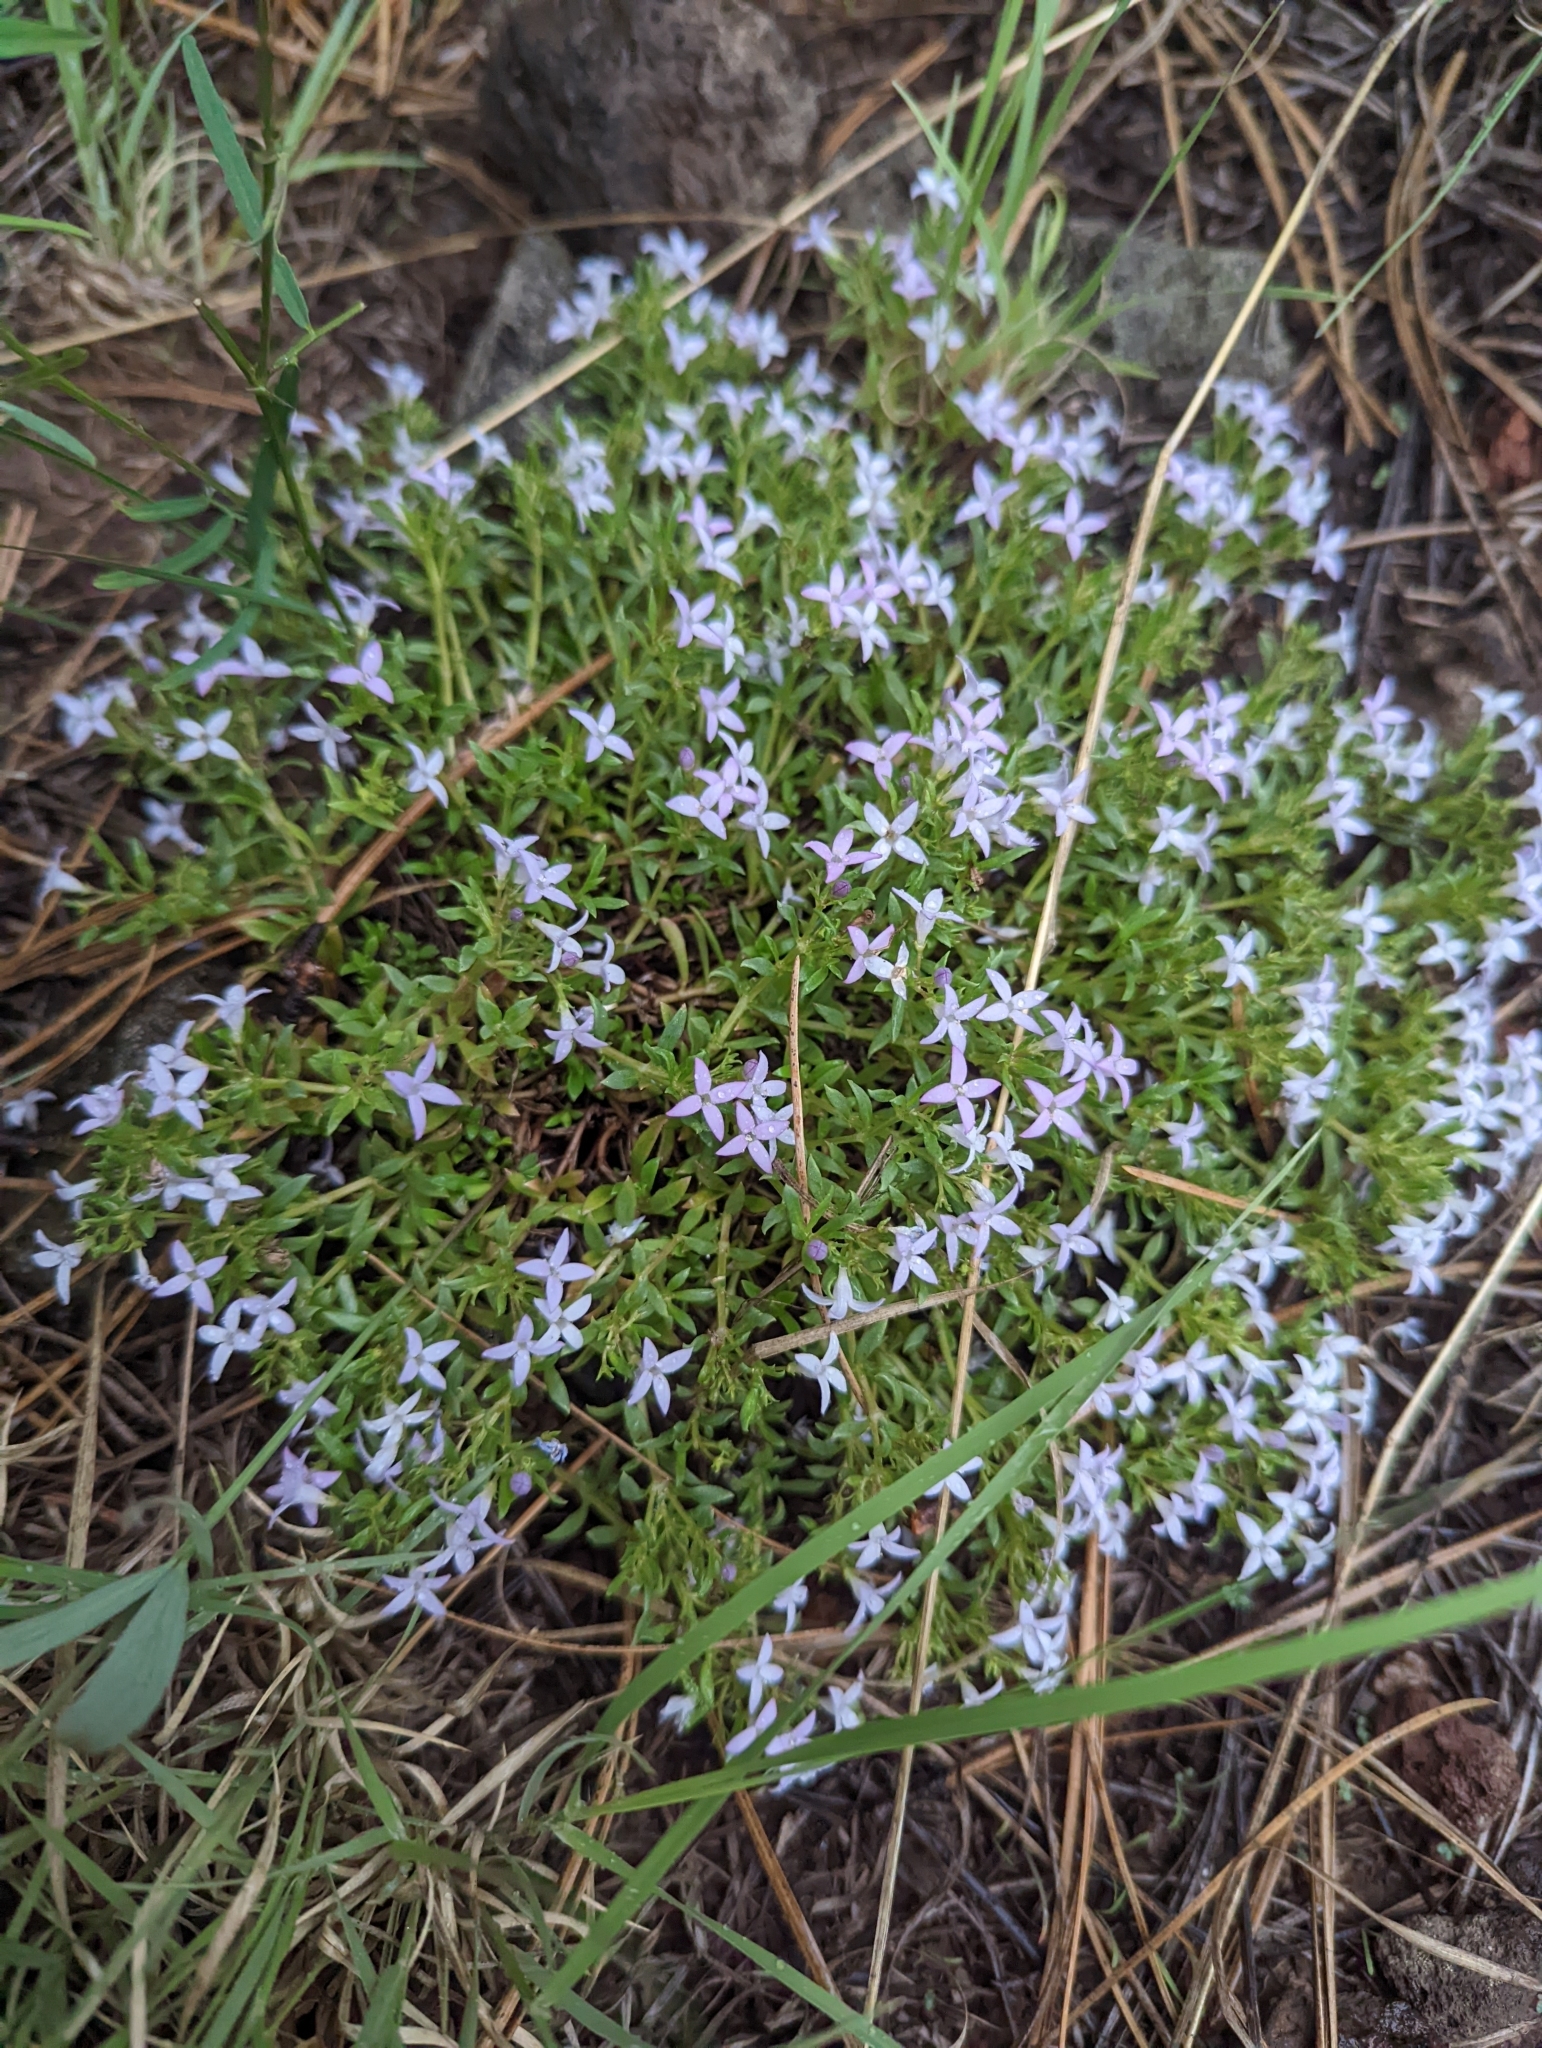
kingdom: Plantae
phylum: Tracheophyta
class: Magnoliopsida
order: Gentianales
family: Rubiaceae
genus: Houstonia
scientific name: Houstonia wrightii
